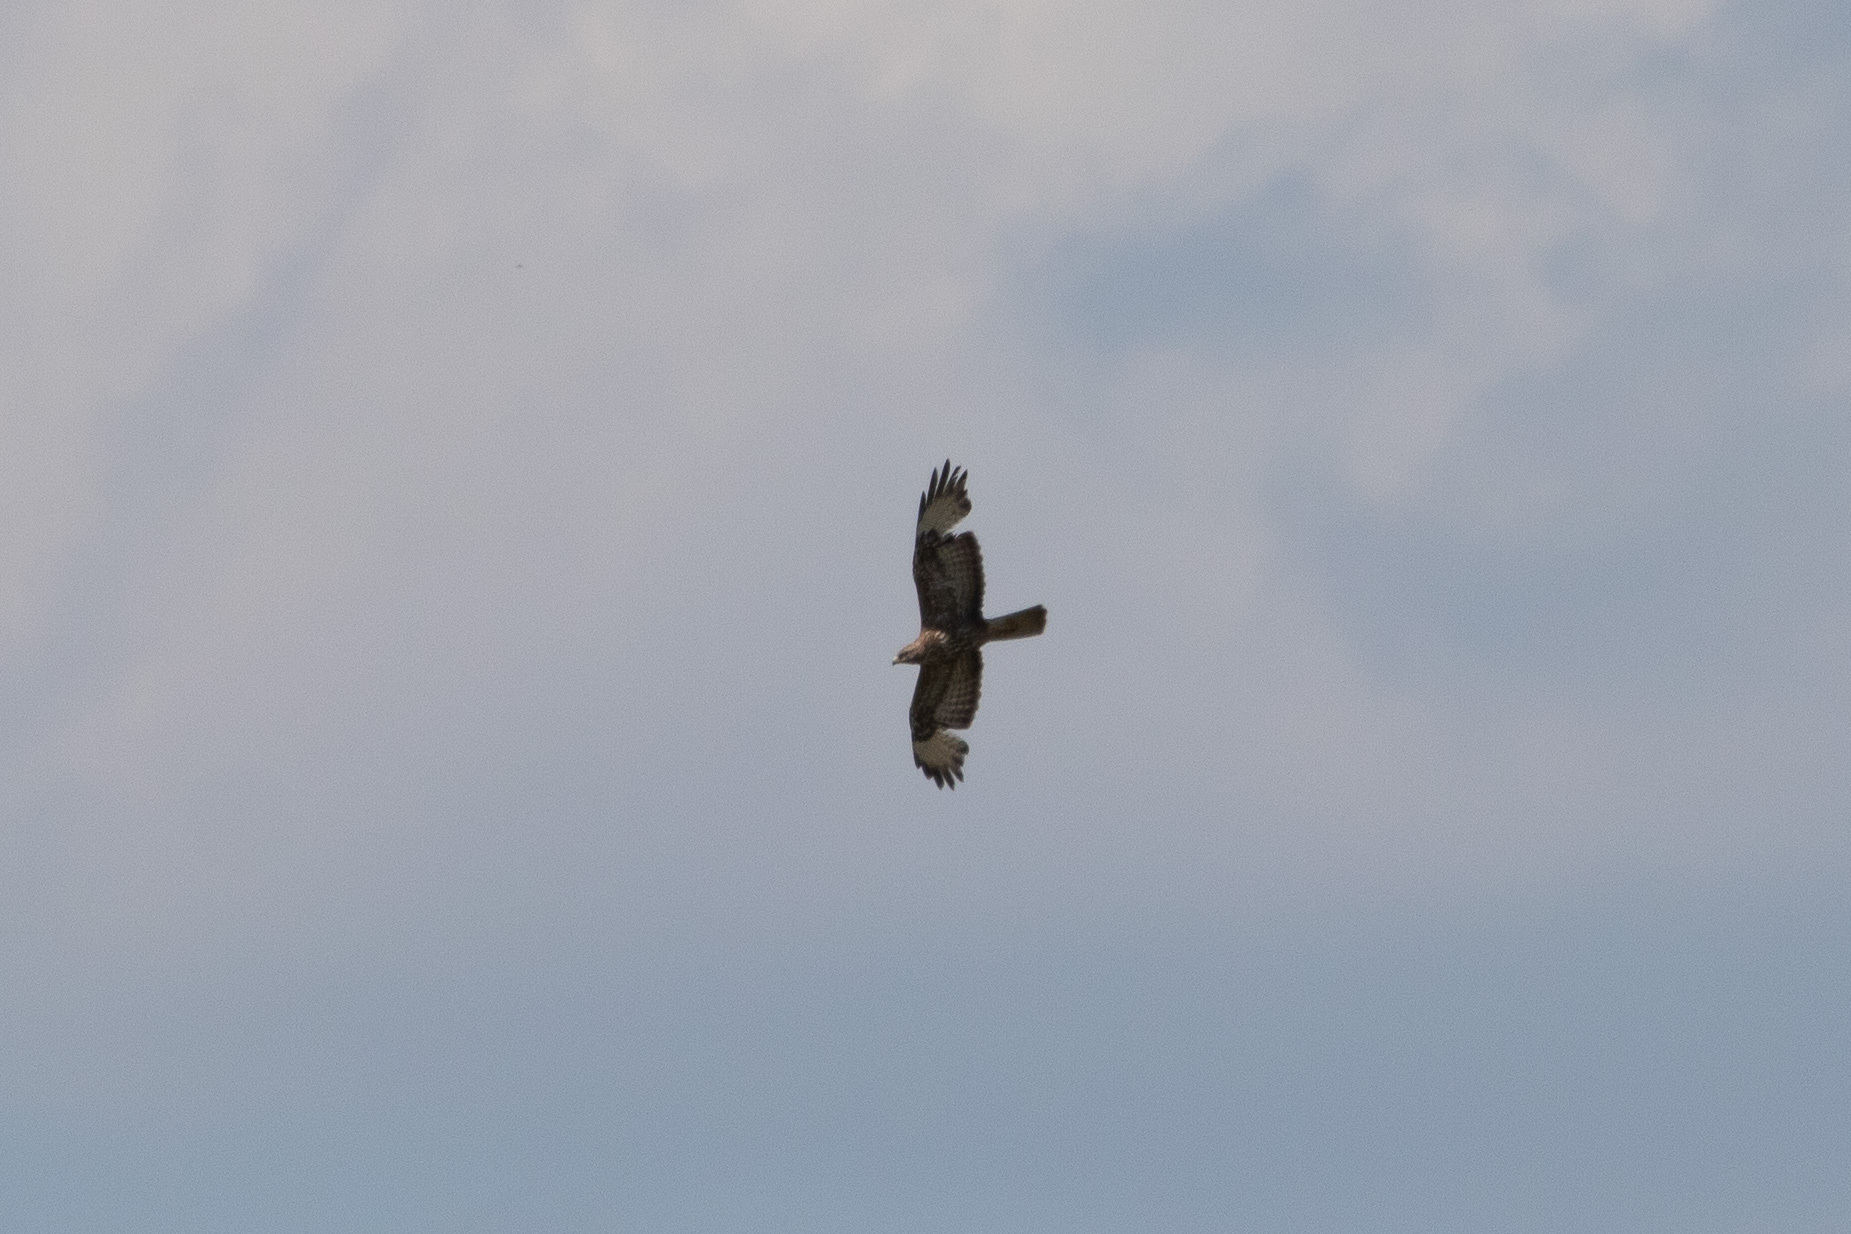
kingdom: Animalia
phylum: Chordata
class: Aves
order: Accipitriformes
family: Accipitridae
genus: Buteo
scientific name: Buteo buteo
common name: Common buzzard
